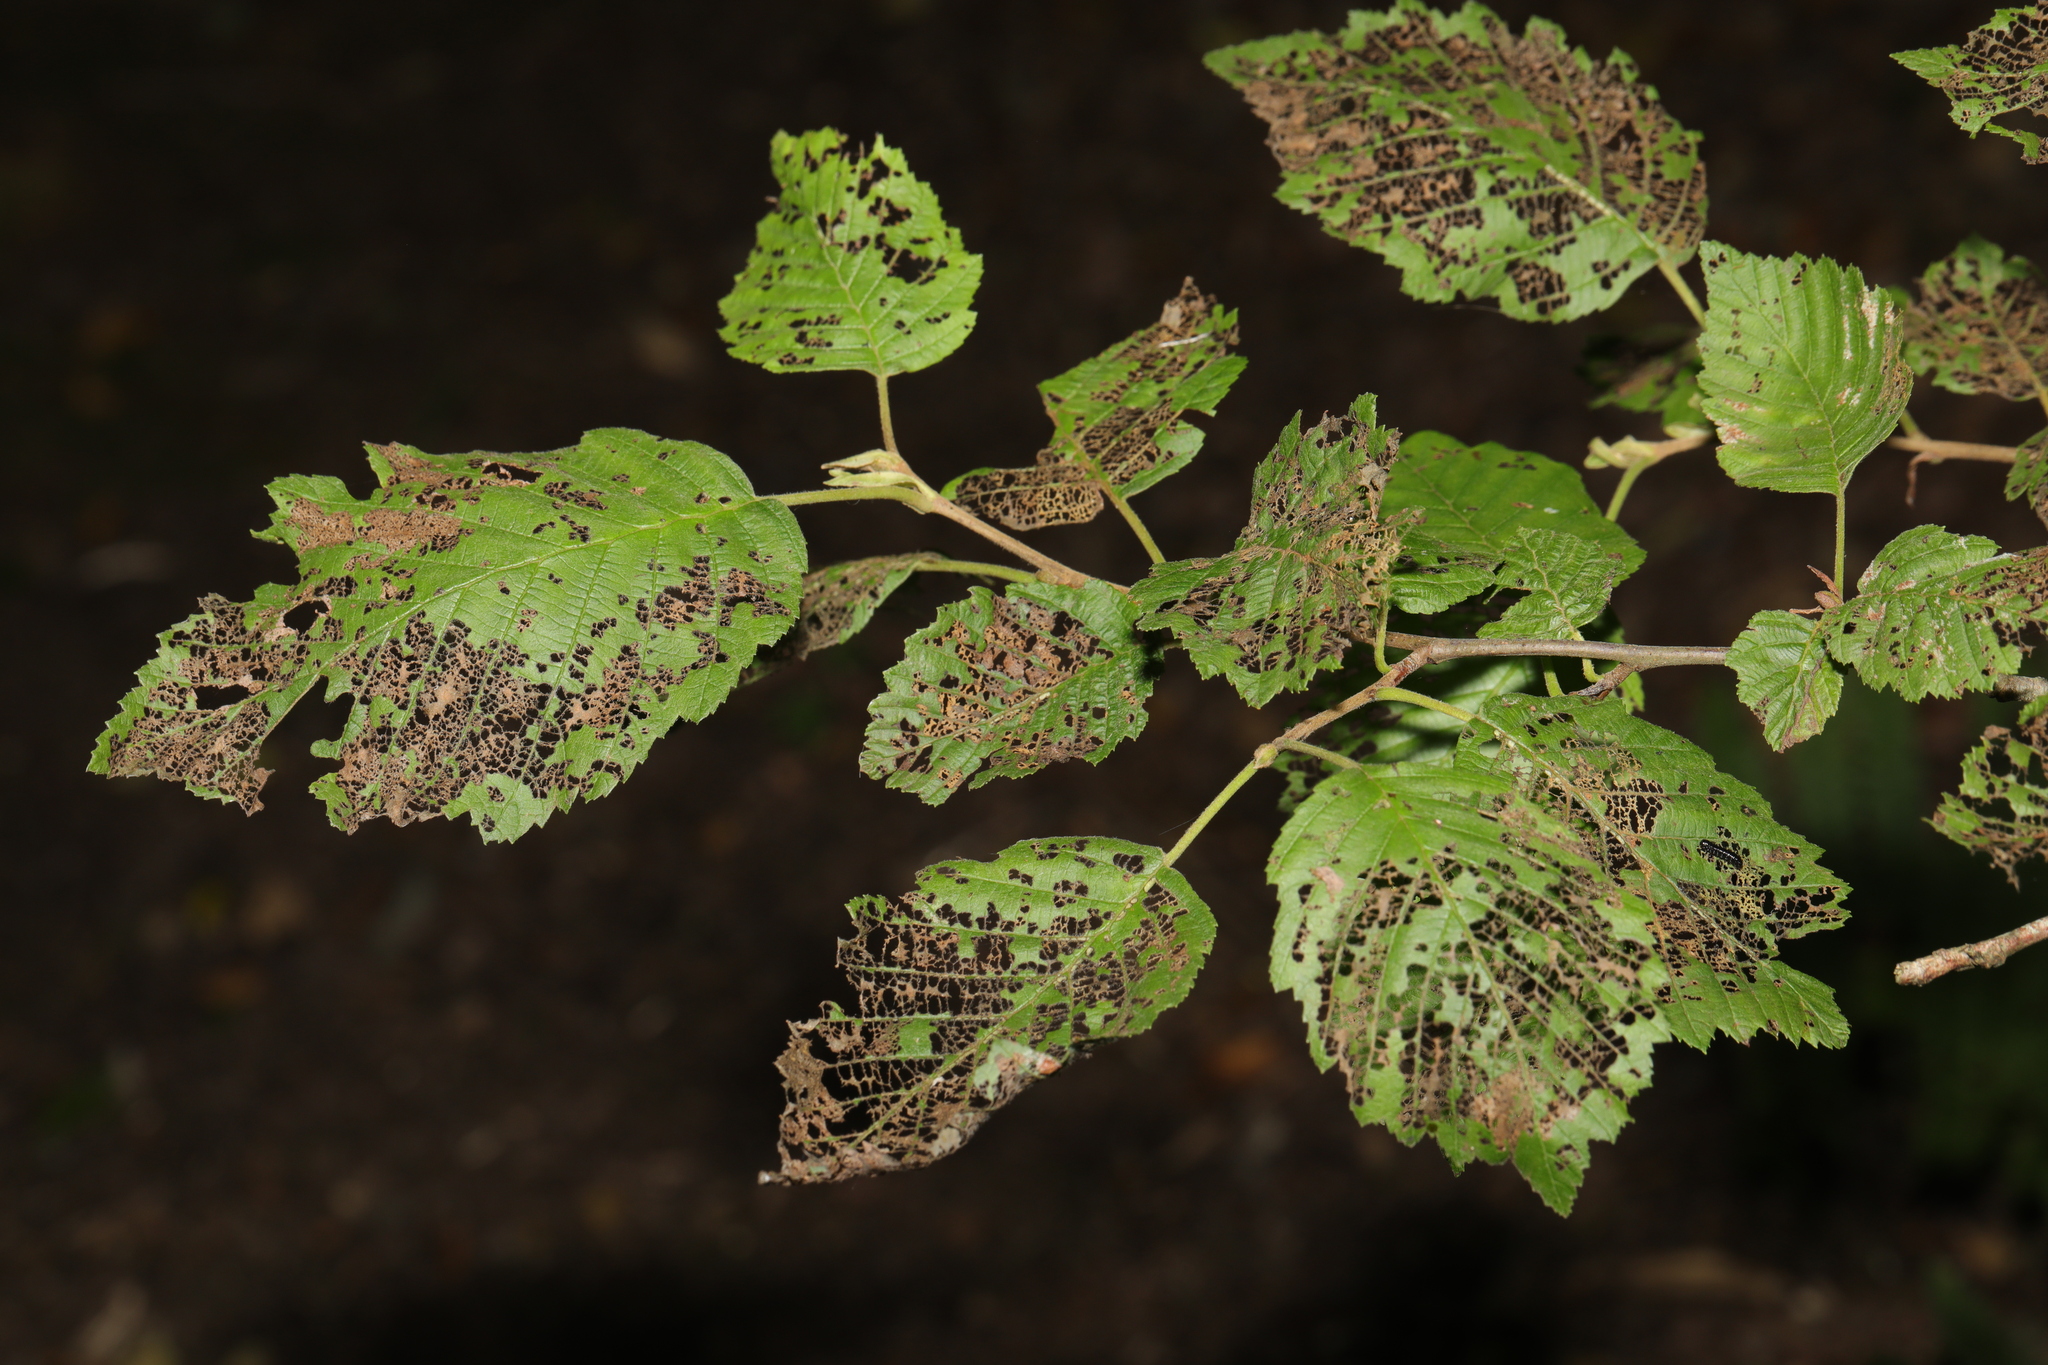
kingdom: Plantae
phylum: Tracheophyta
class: Magnoliopsida
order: Fagales
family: Betulaceae
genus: Alnus
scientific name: Alnus incana
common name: Grey alder
